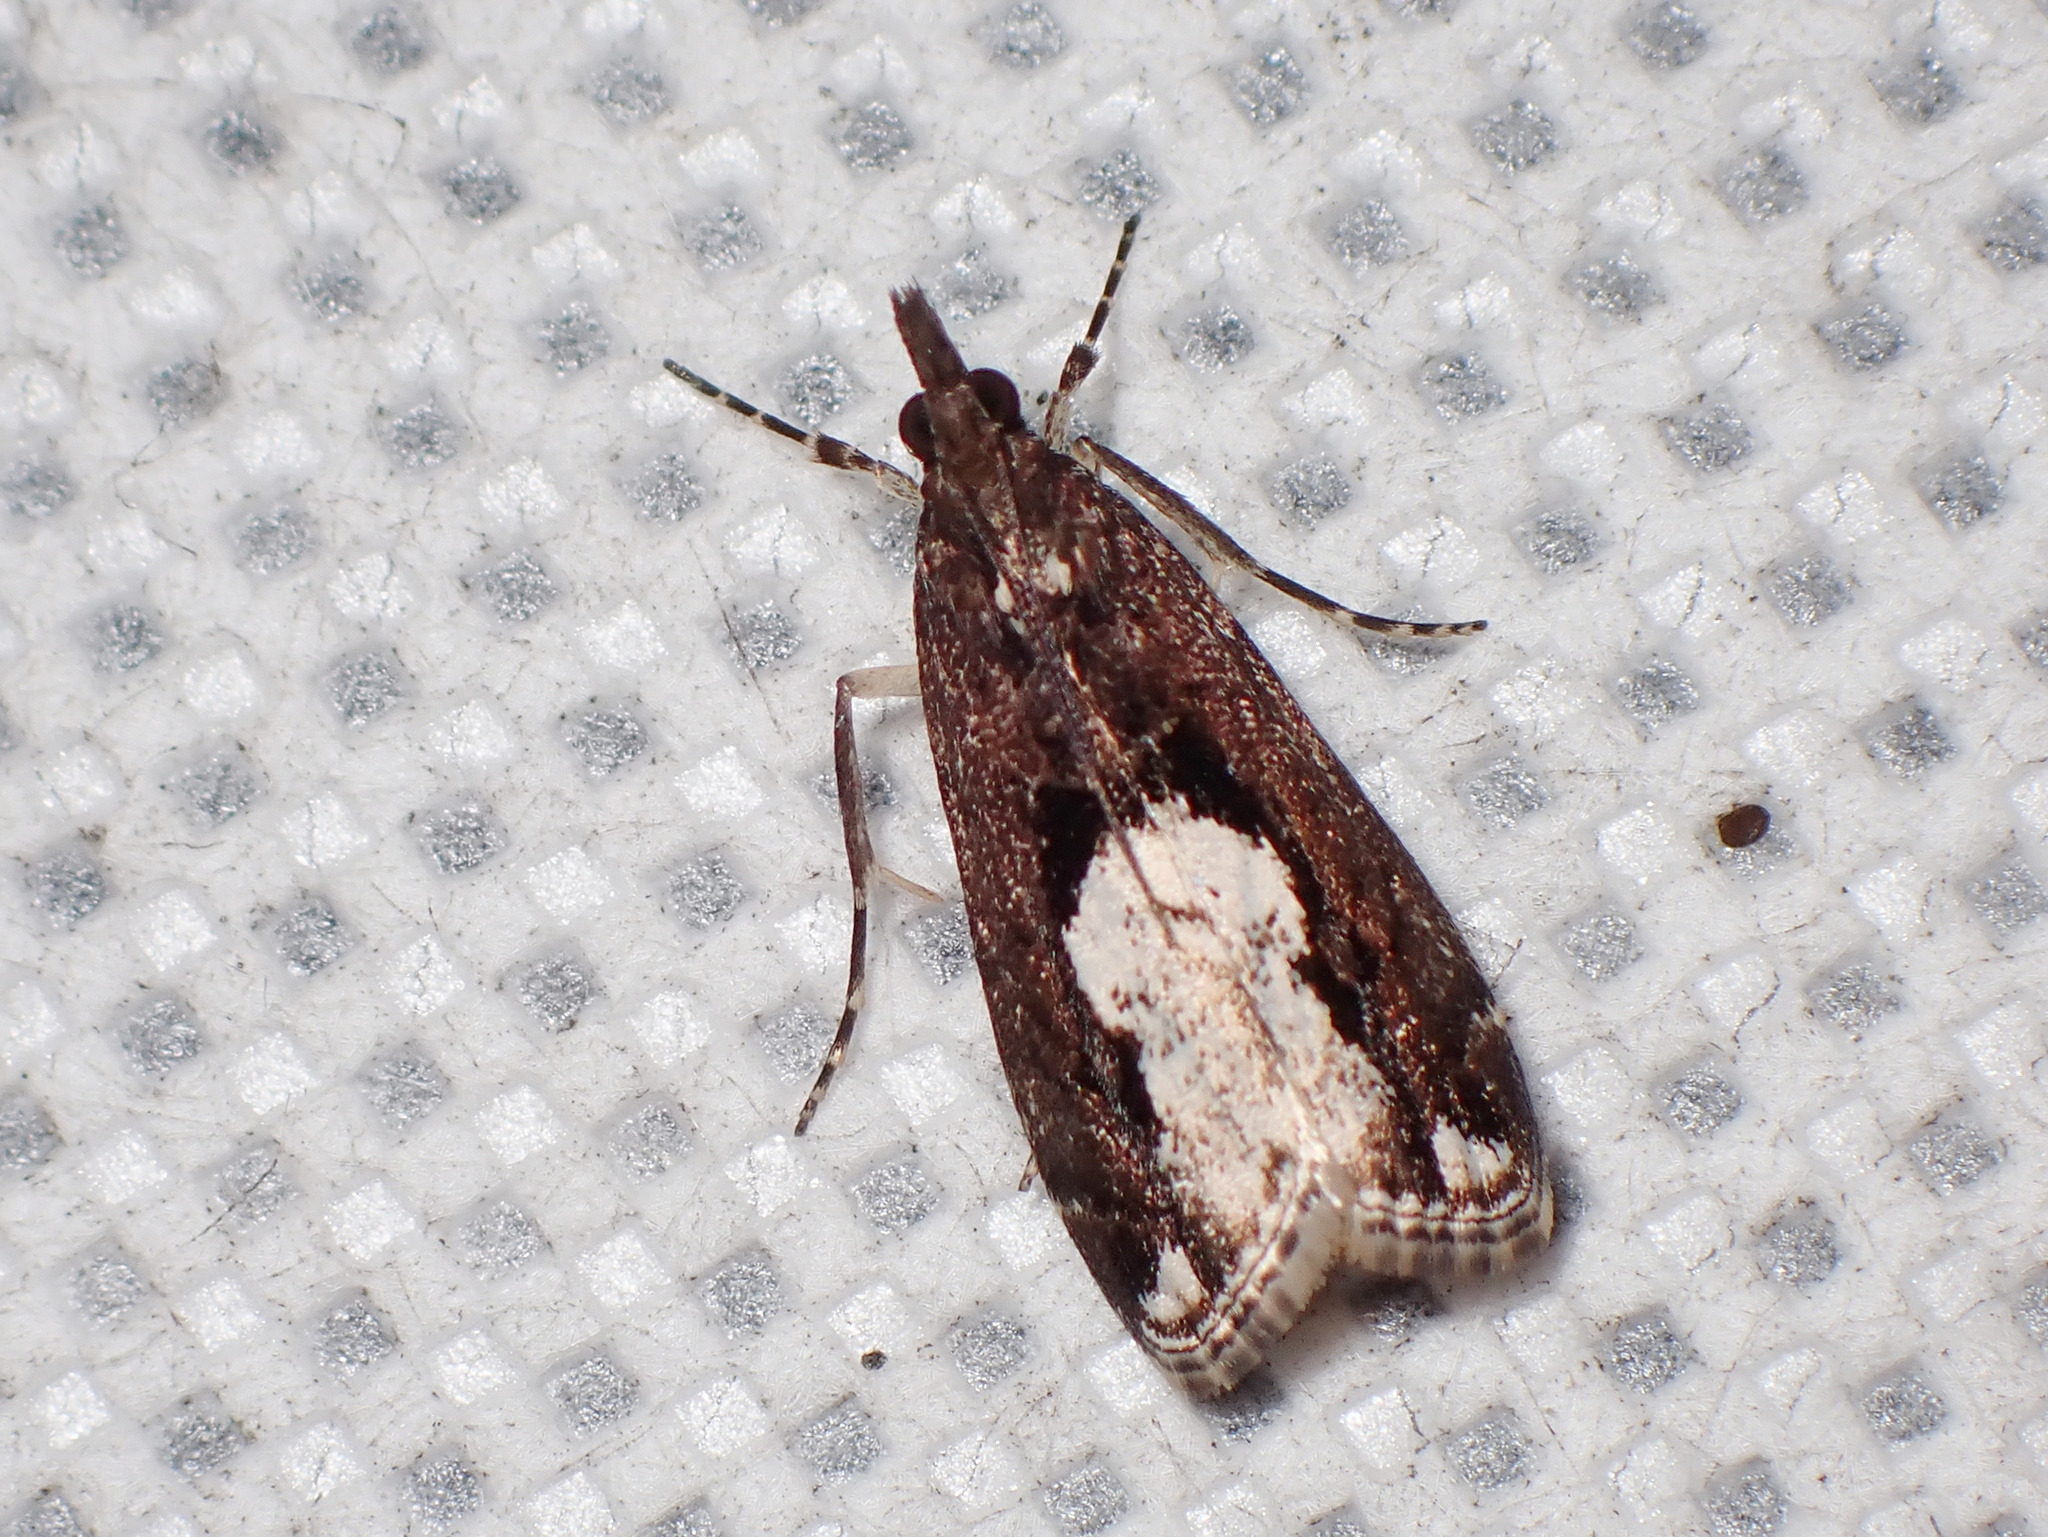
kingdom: Animalia
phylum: Arthropoda
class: Insecta
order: Lepidoptera
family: Crambidae
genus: Eudonia
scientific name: Eudonia hemiplaca
